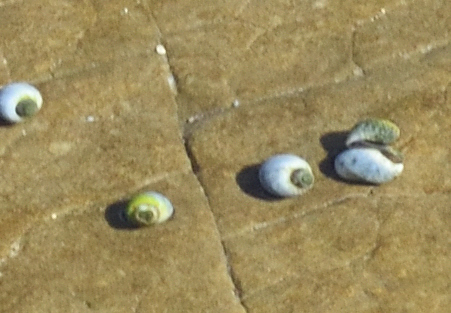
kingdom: Animalia
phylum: Mollusca
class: Gastropoda
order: Littorinimorpha
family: Littorinidae
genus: Afrolittorina
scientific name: Afrolittorina africana
